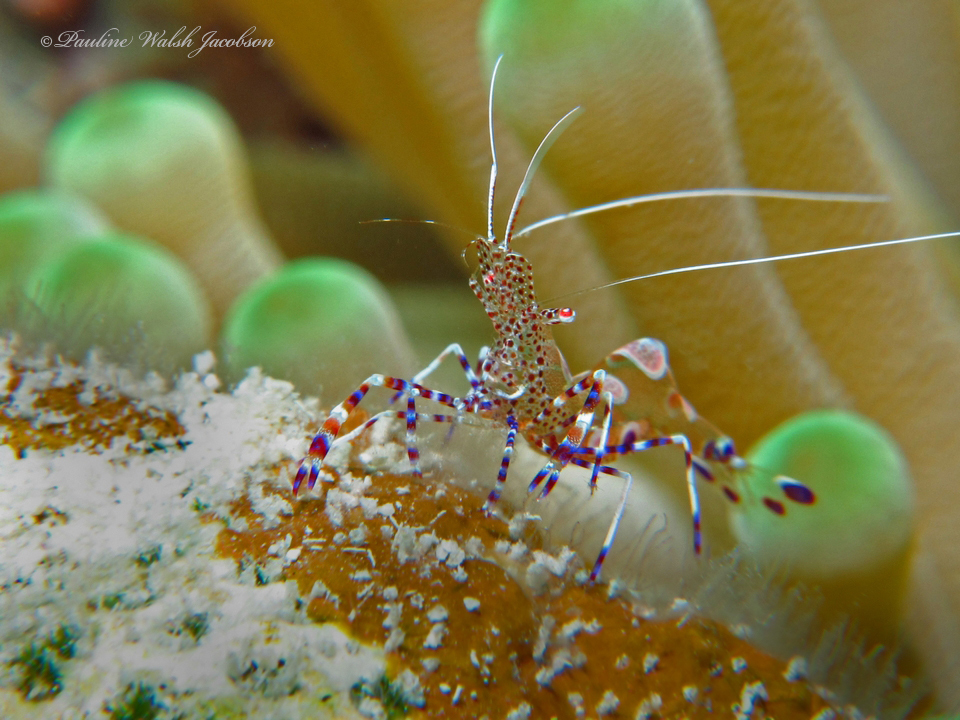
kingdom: Animalia
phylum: Arthropoda
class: Malacostraca
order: Decapoda
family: Palaemonidae
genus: Periclimenes
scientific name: Periclimenes yucatanicus
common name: Spotted cleaning shrimp
